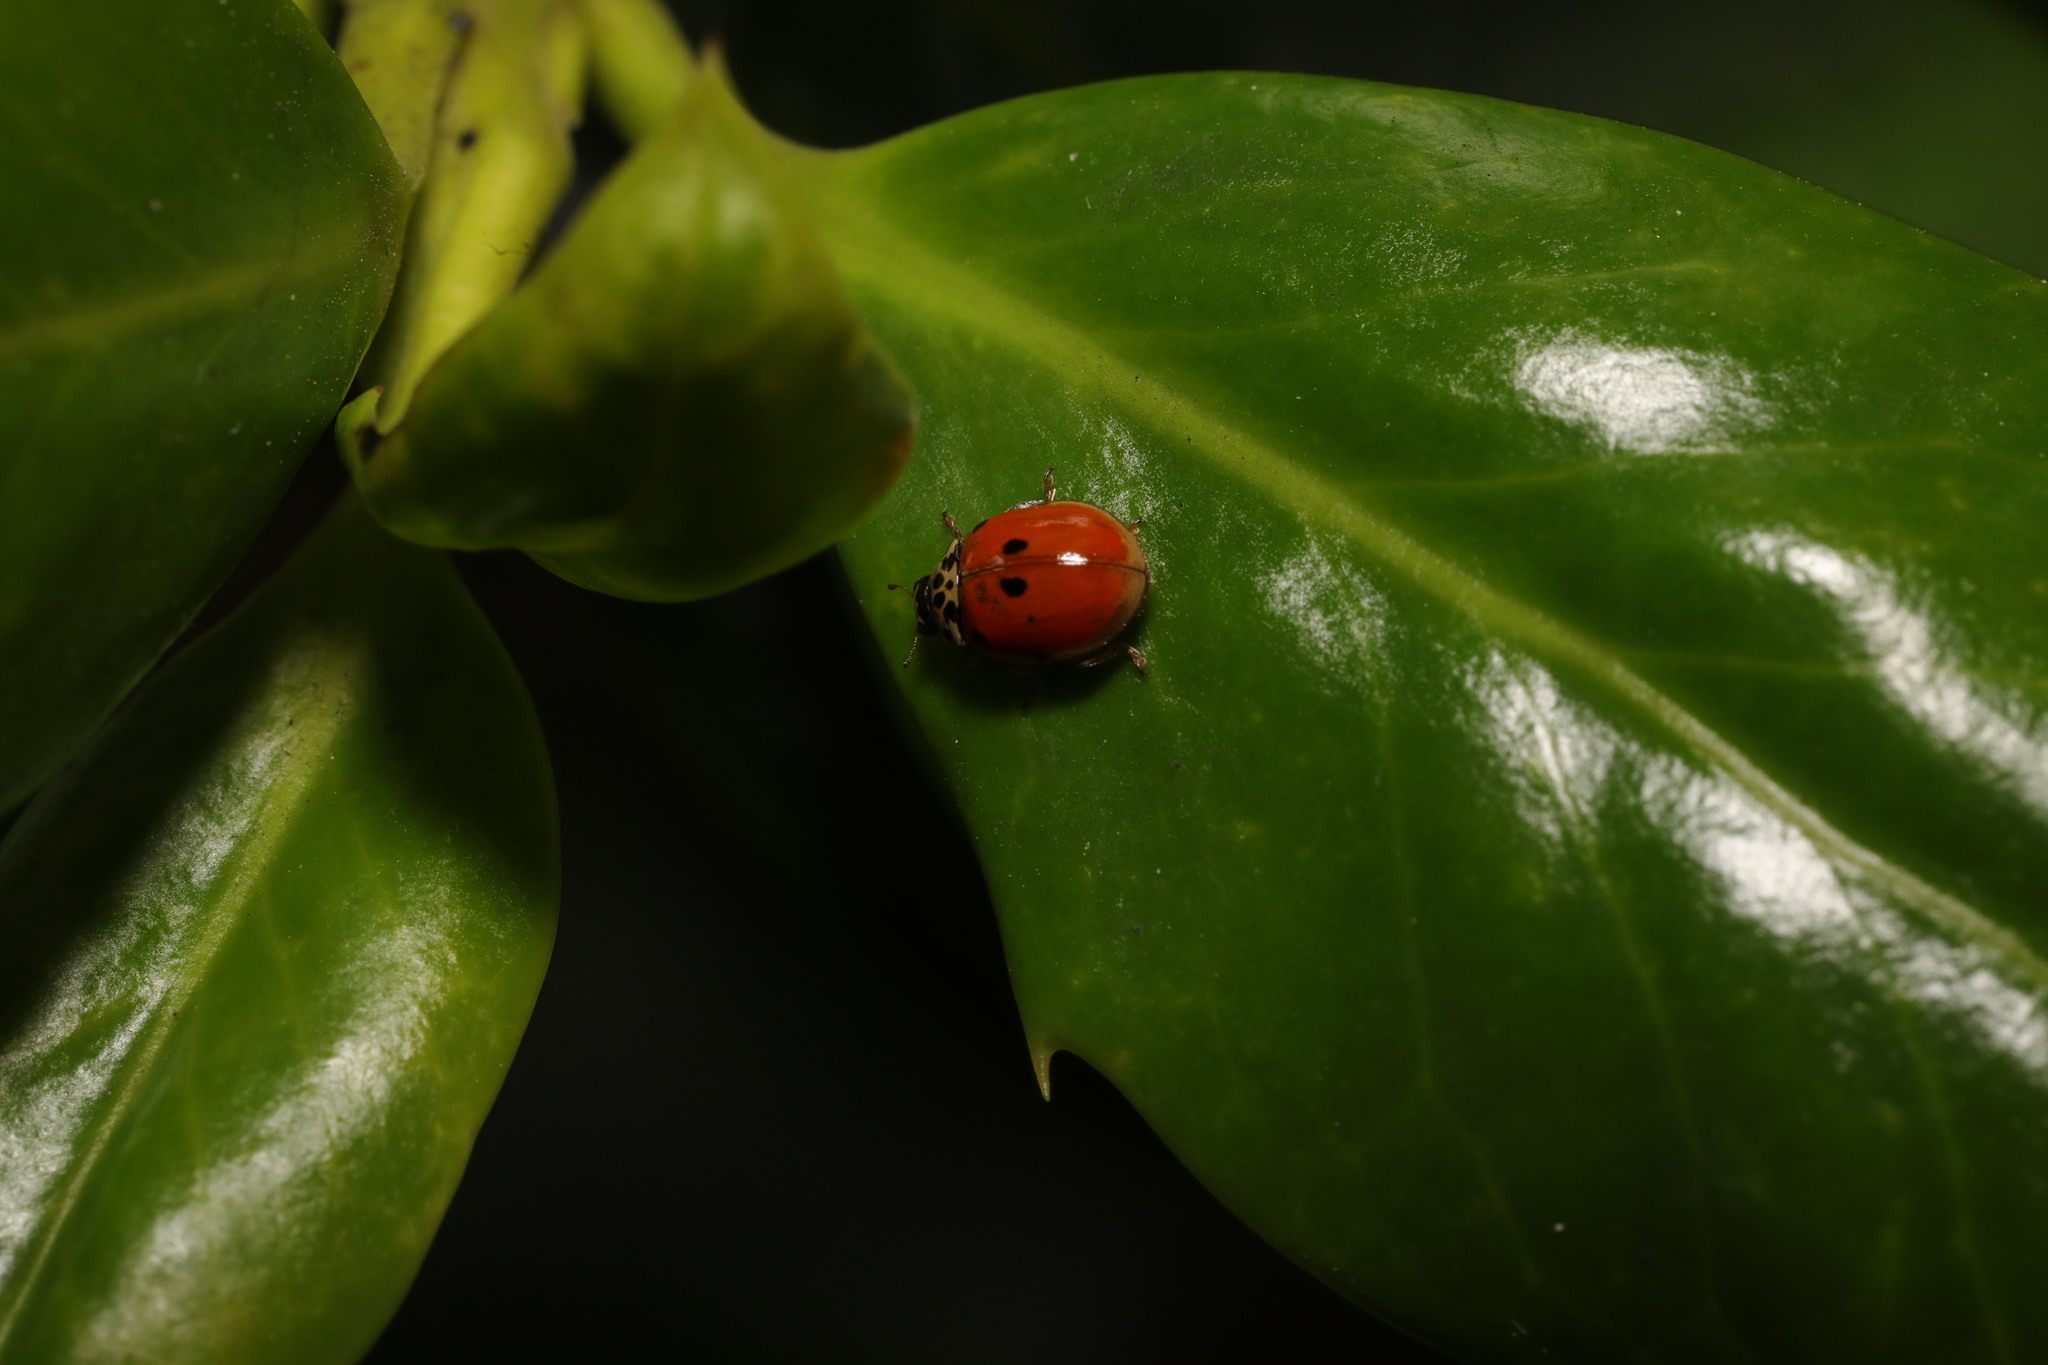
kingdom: Animalia
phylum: Arthropoda
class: Insecta
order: Coleoptera
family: Coccinellidae
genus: Adalia
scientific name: Adalia decempunctata
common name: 10-spot ladybird
